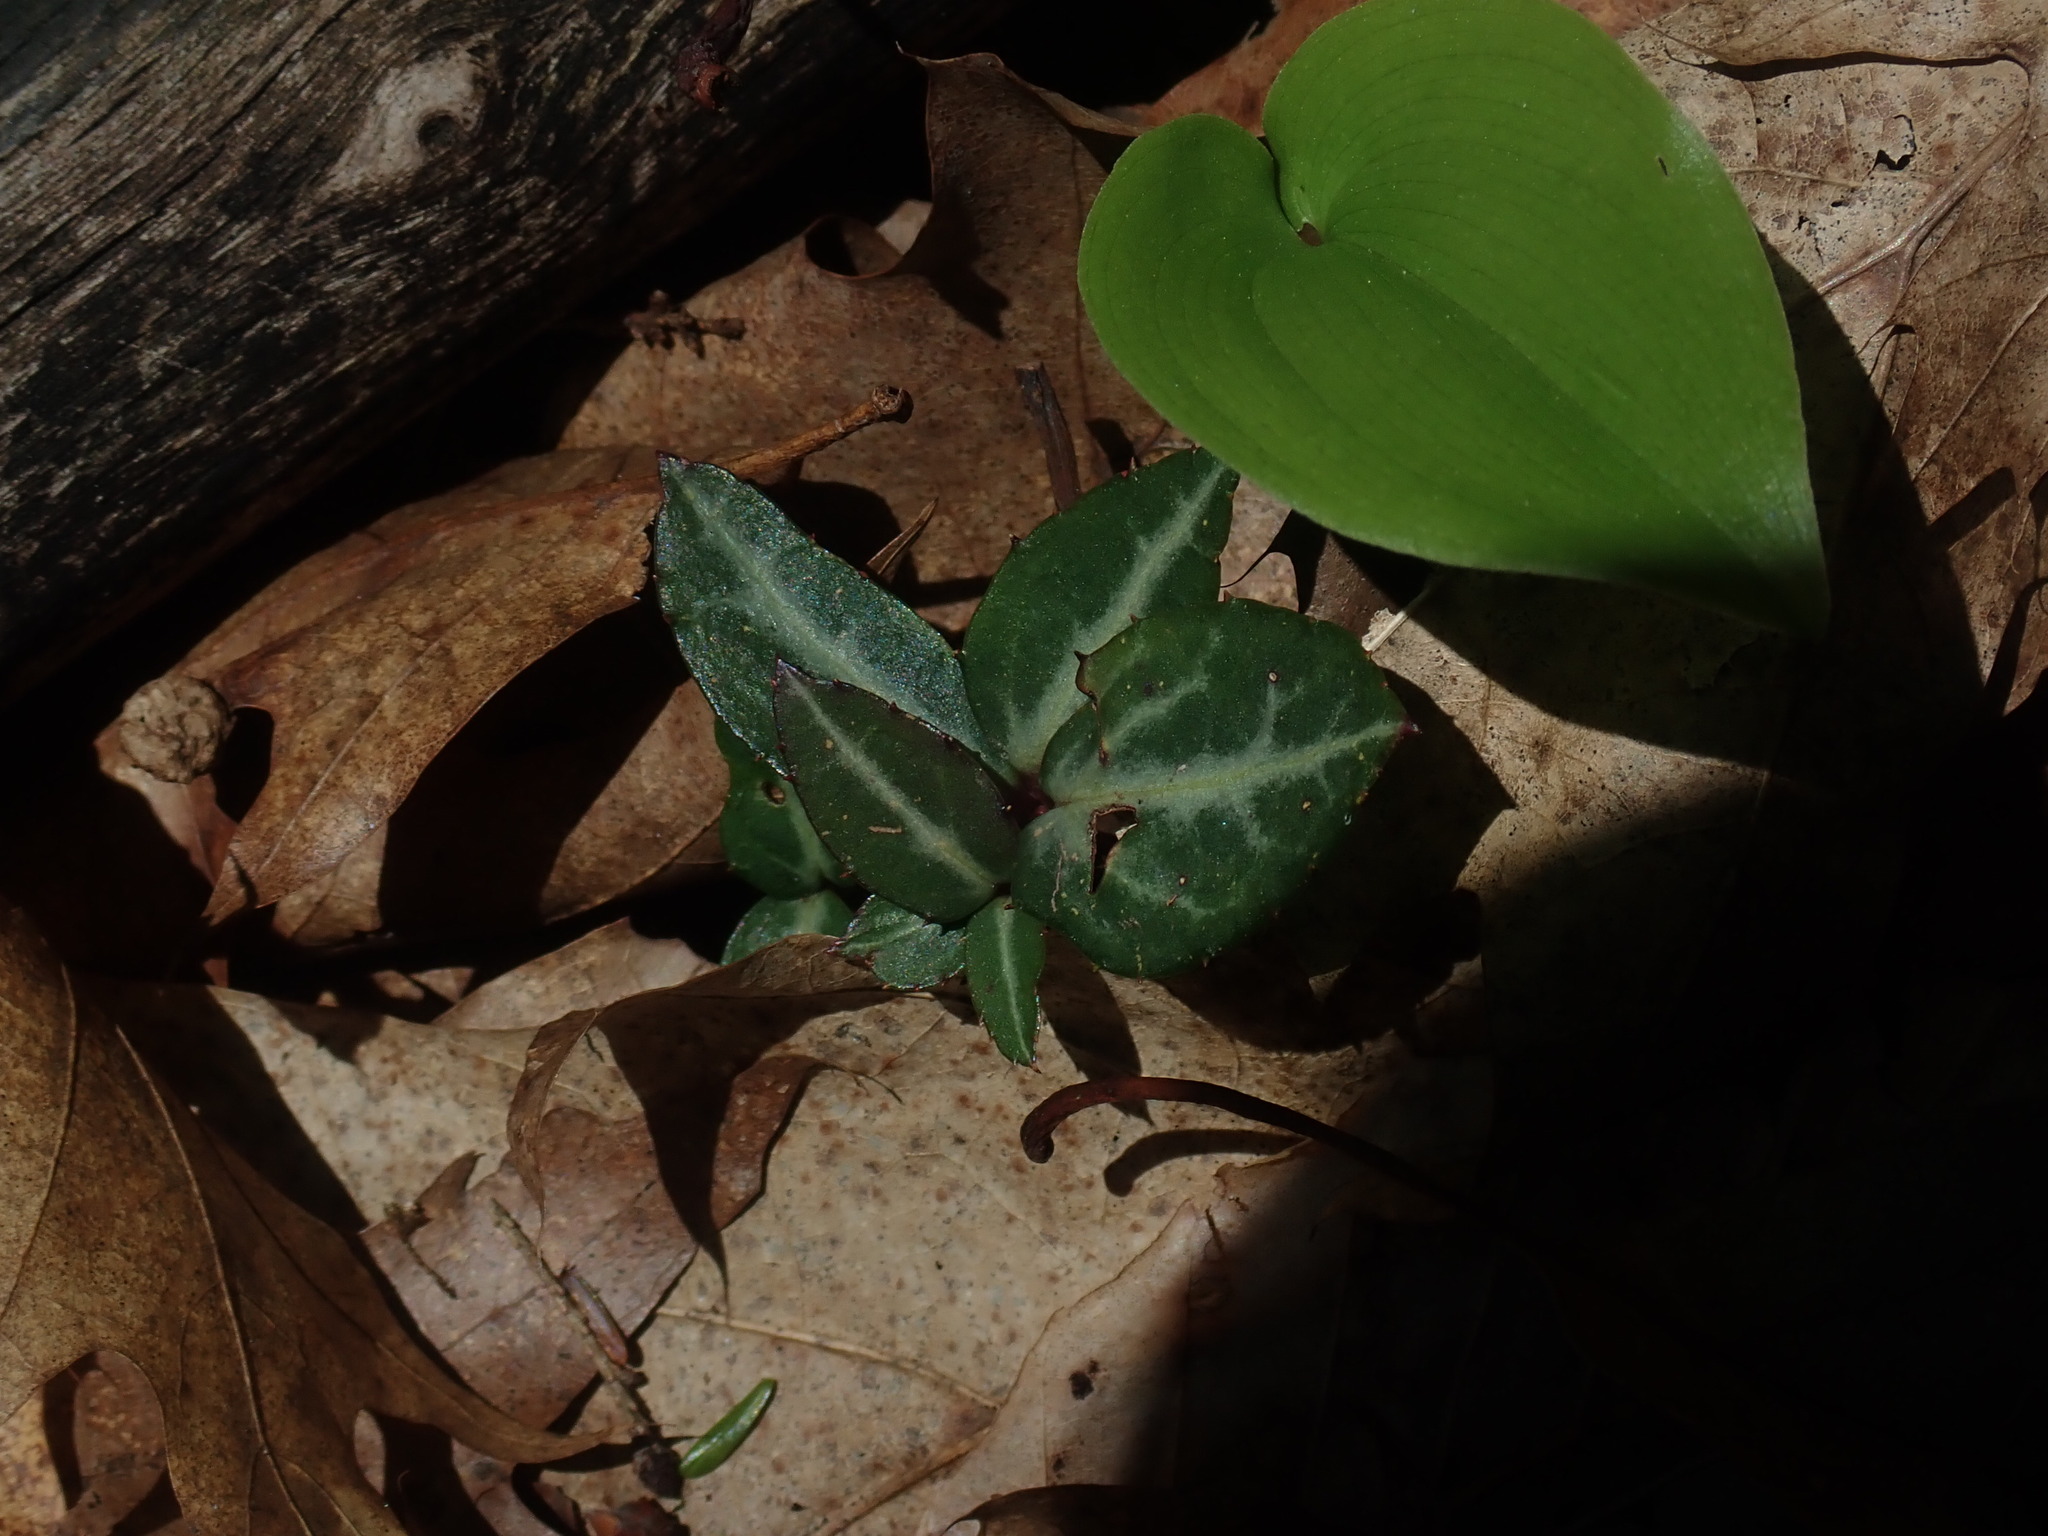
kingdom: Plantae
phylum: Tracheophyta
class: Magnoliopsida
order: Ericales
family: Ericaceae
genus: Chimaphila
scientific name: Chimaphila maculata
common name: Spotted pipsissewa
